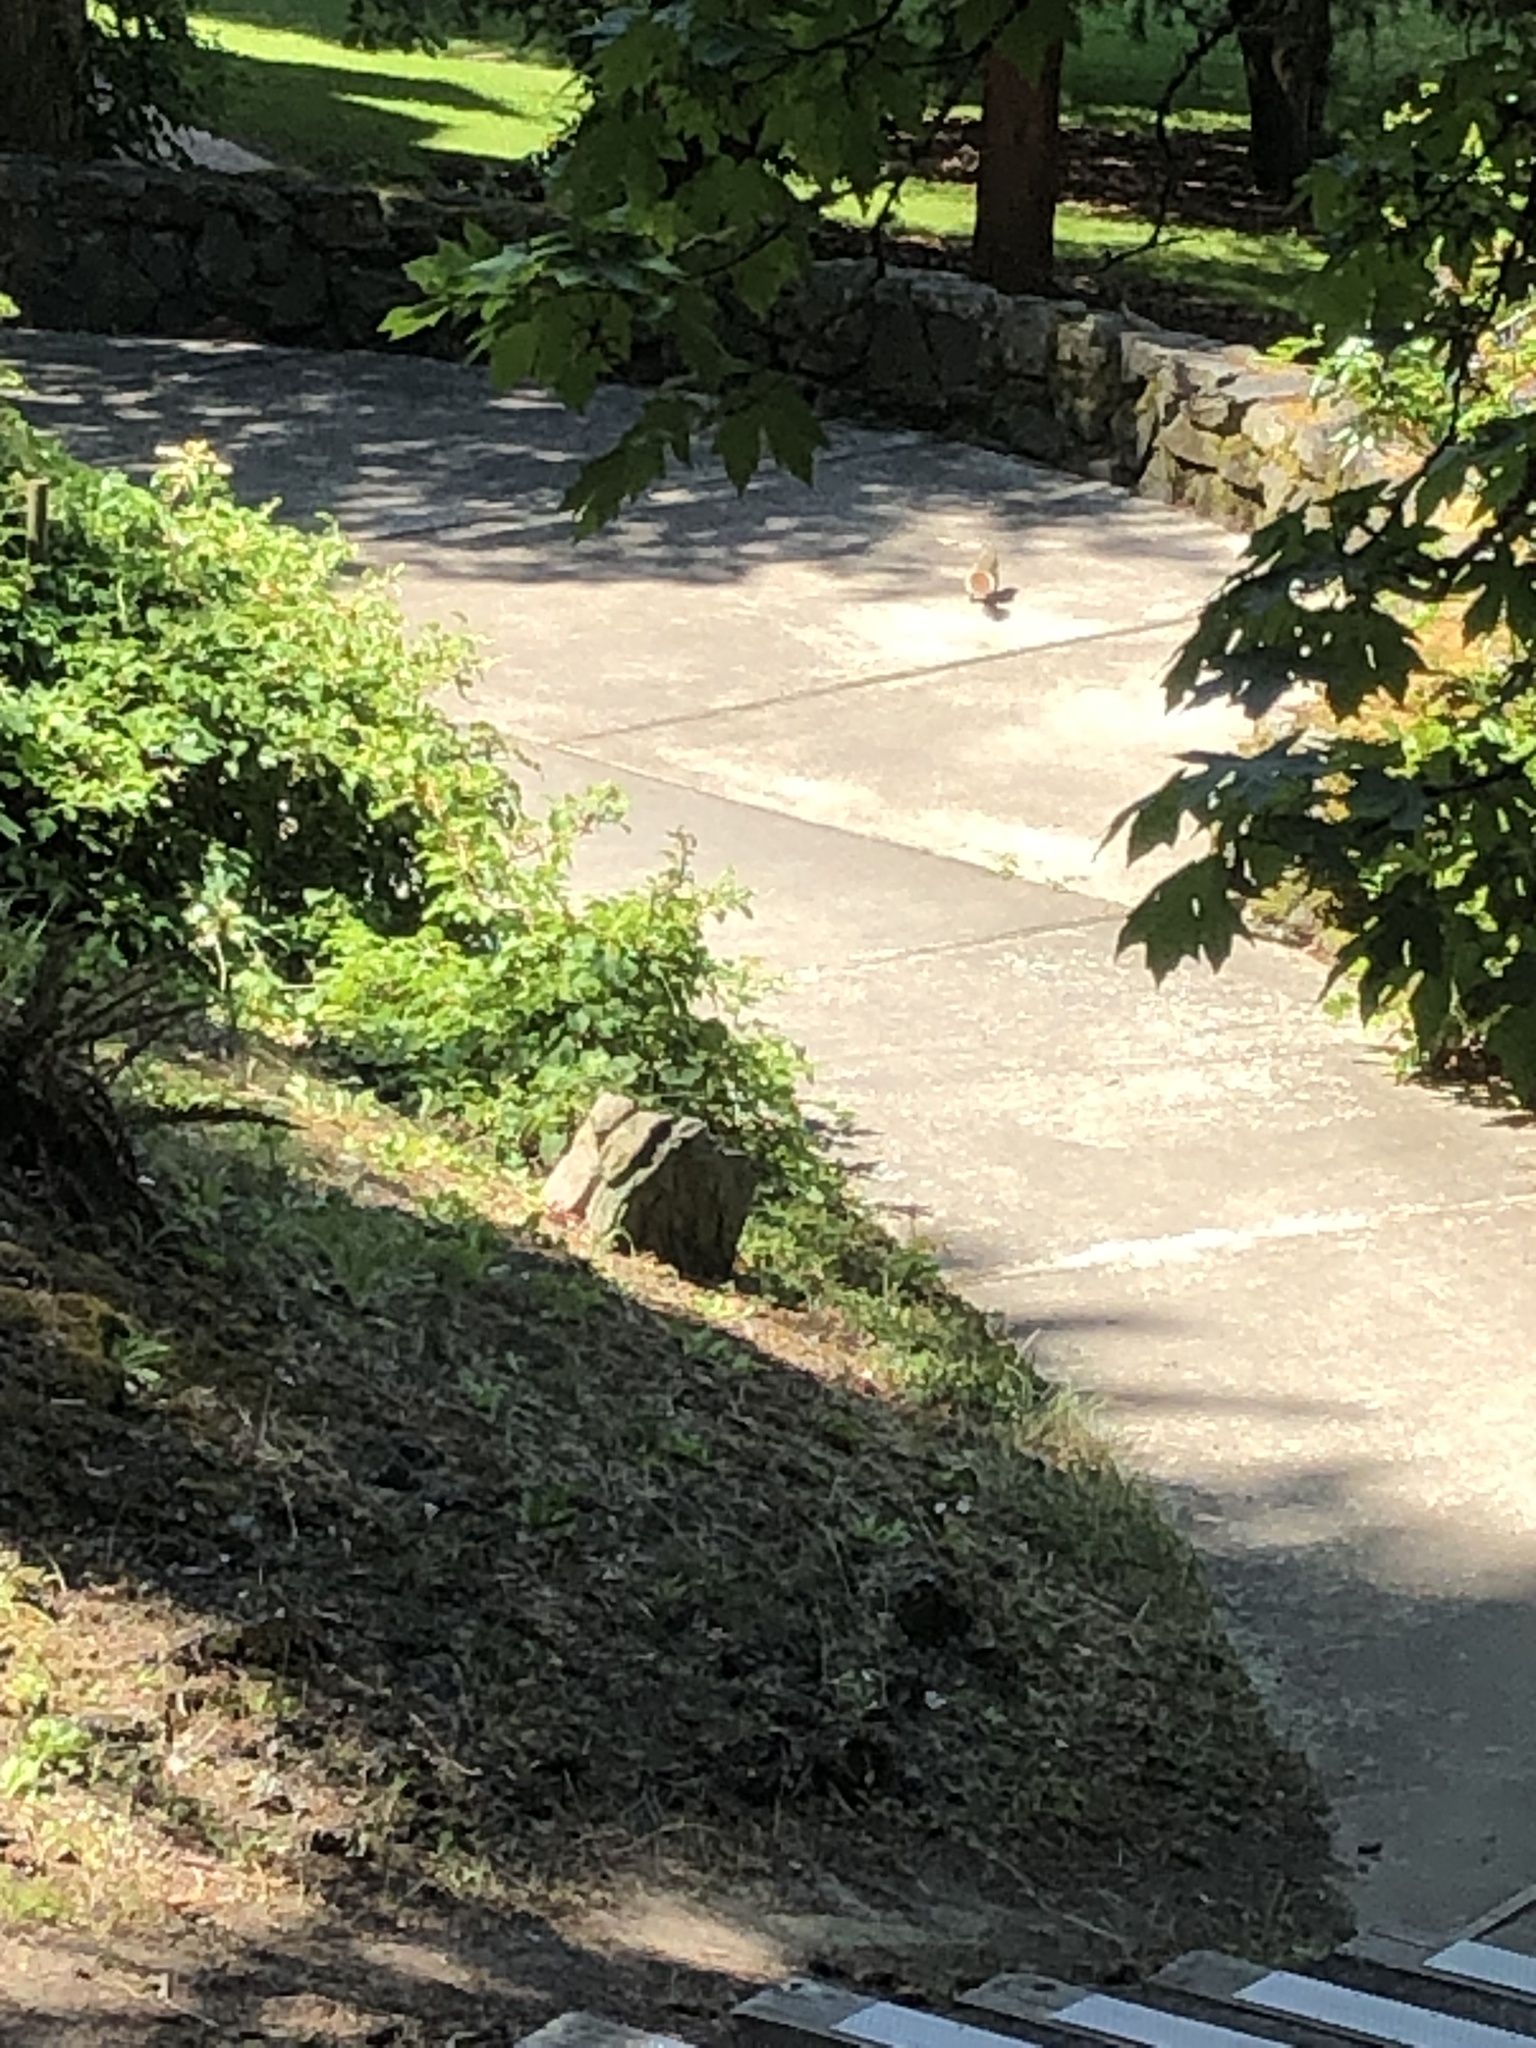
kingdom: Animalia
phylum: Chordata
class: Mammalia
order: Rodentia
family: Sciuridae
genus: Sciurus
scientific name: Sciurus carolinensis
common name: Eastern gray squirrel
